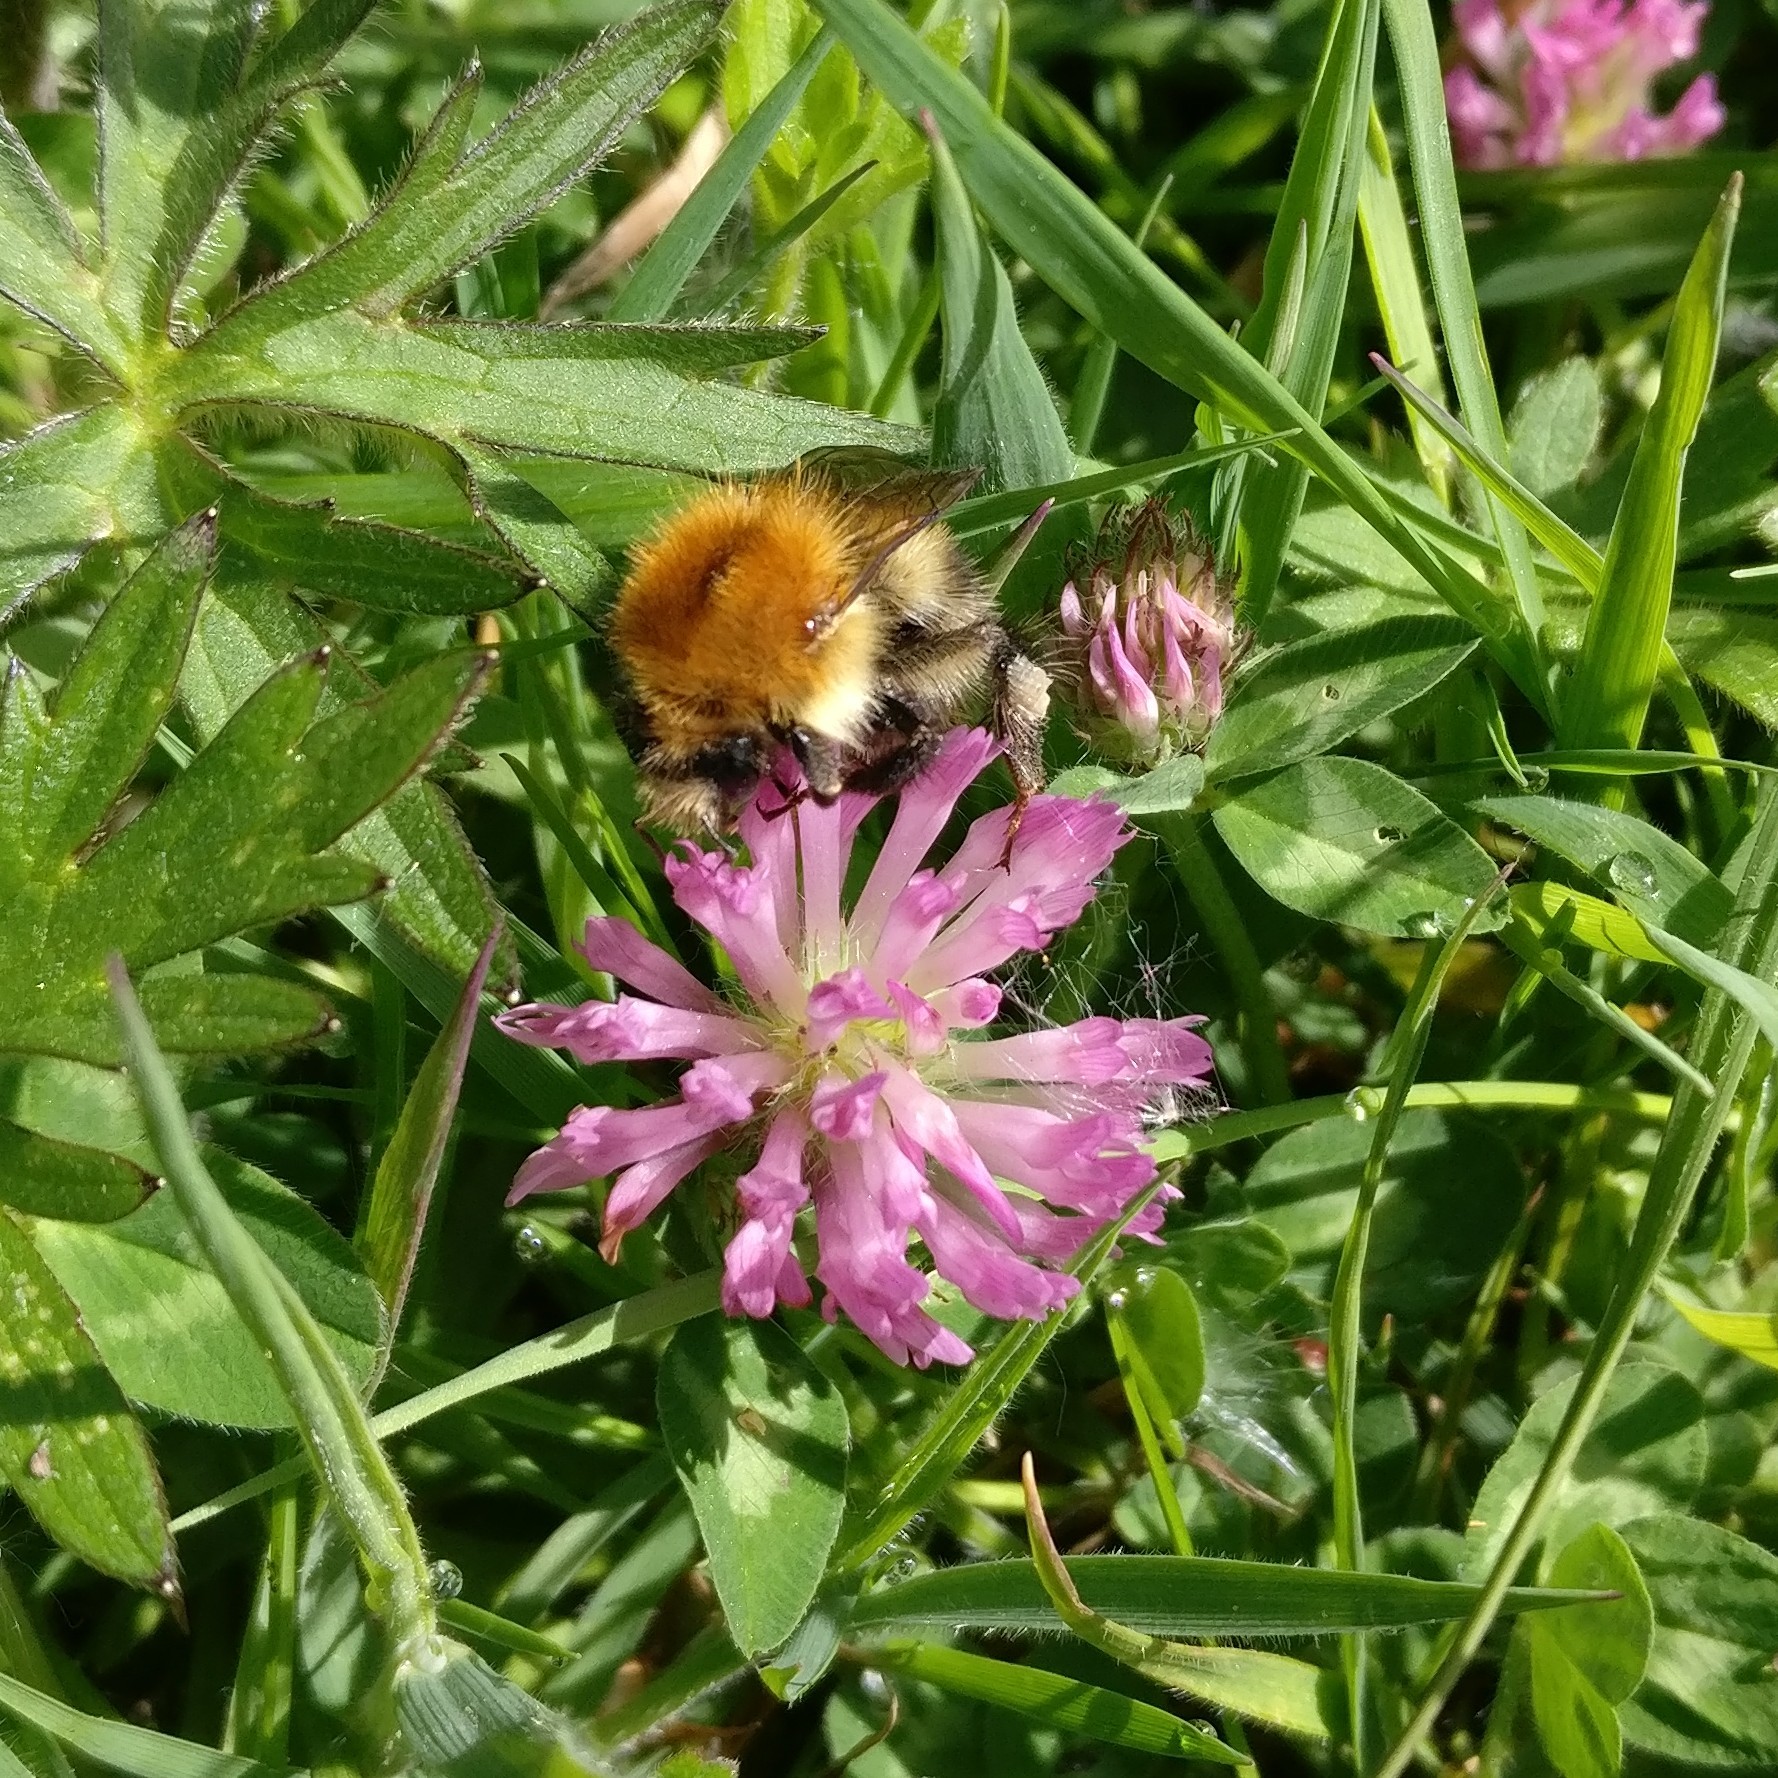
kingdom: Animalia
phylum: Arthropoda
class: Insecta
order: Hymenoptera
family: Apidae
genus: Bombus
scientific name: Bombus pascuorum
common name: Common carder bee
